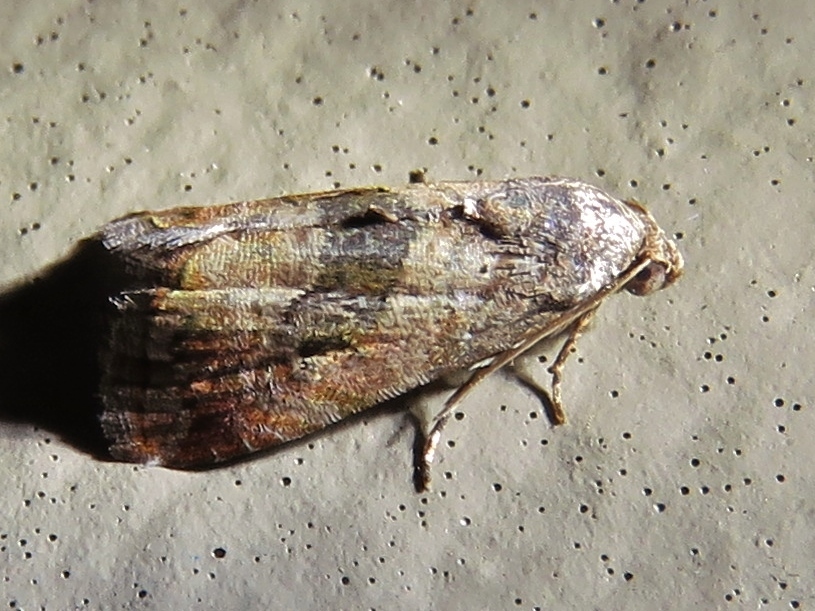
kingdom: Animalia
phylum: Arthropoda
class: Insecta
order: Lepidoptera
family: Noctuidae
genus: Tripudia
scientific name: Tripudia quadrifera
